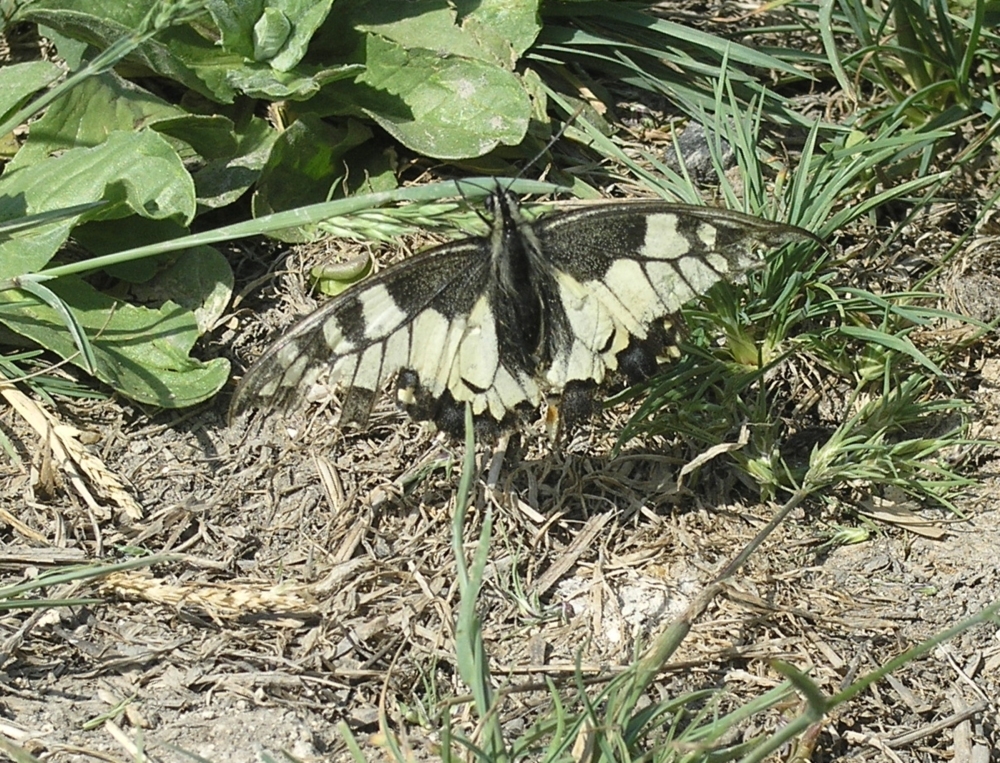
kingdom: Animalia
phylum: Arthropoda
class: Insecta
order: Lepidoptera
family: Papilionidae
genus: Papilio
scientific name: Papilio machaon
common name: Swallowtail
